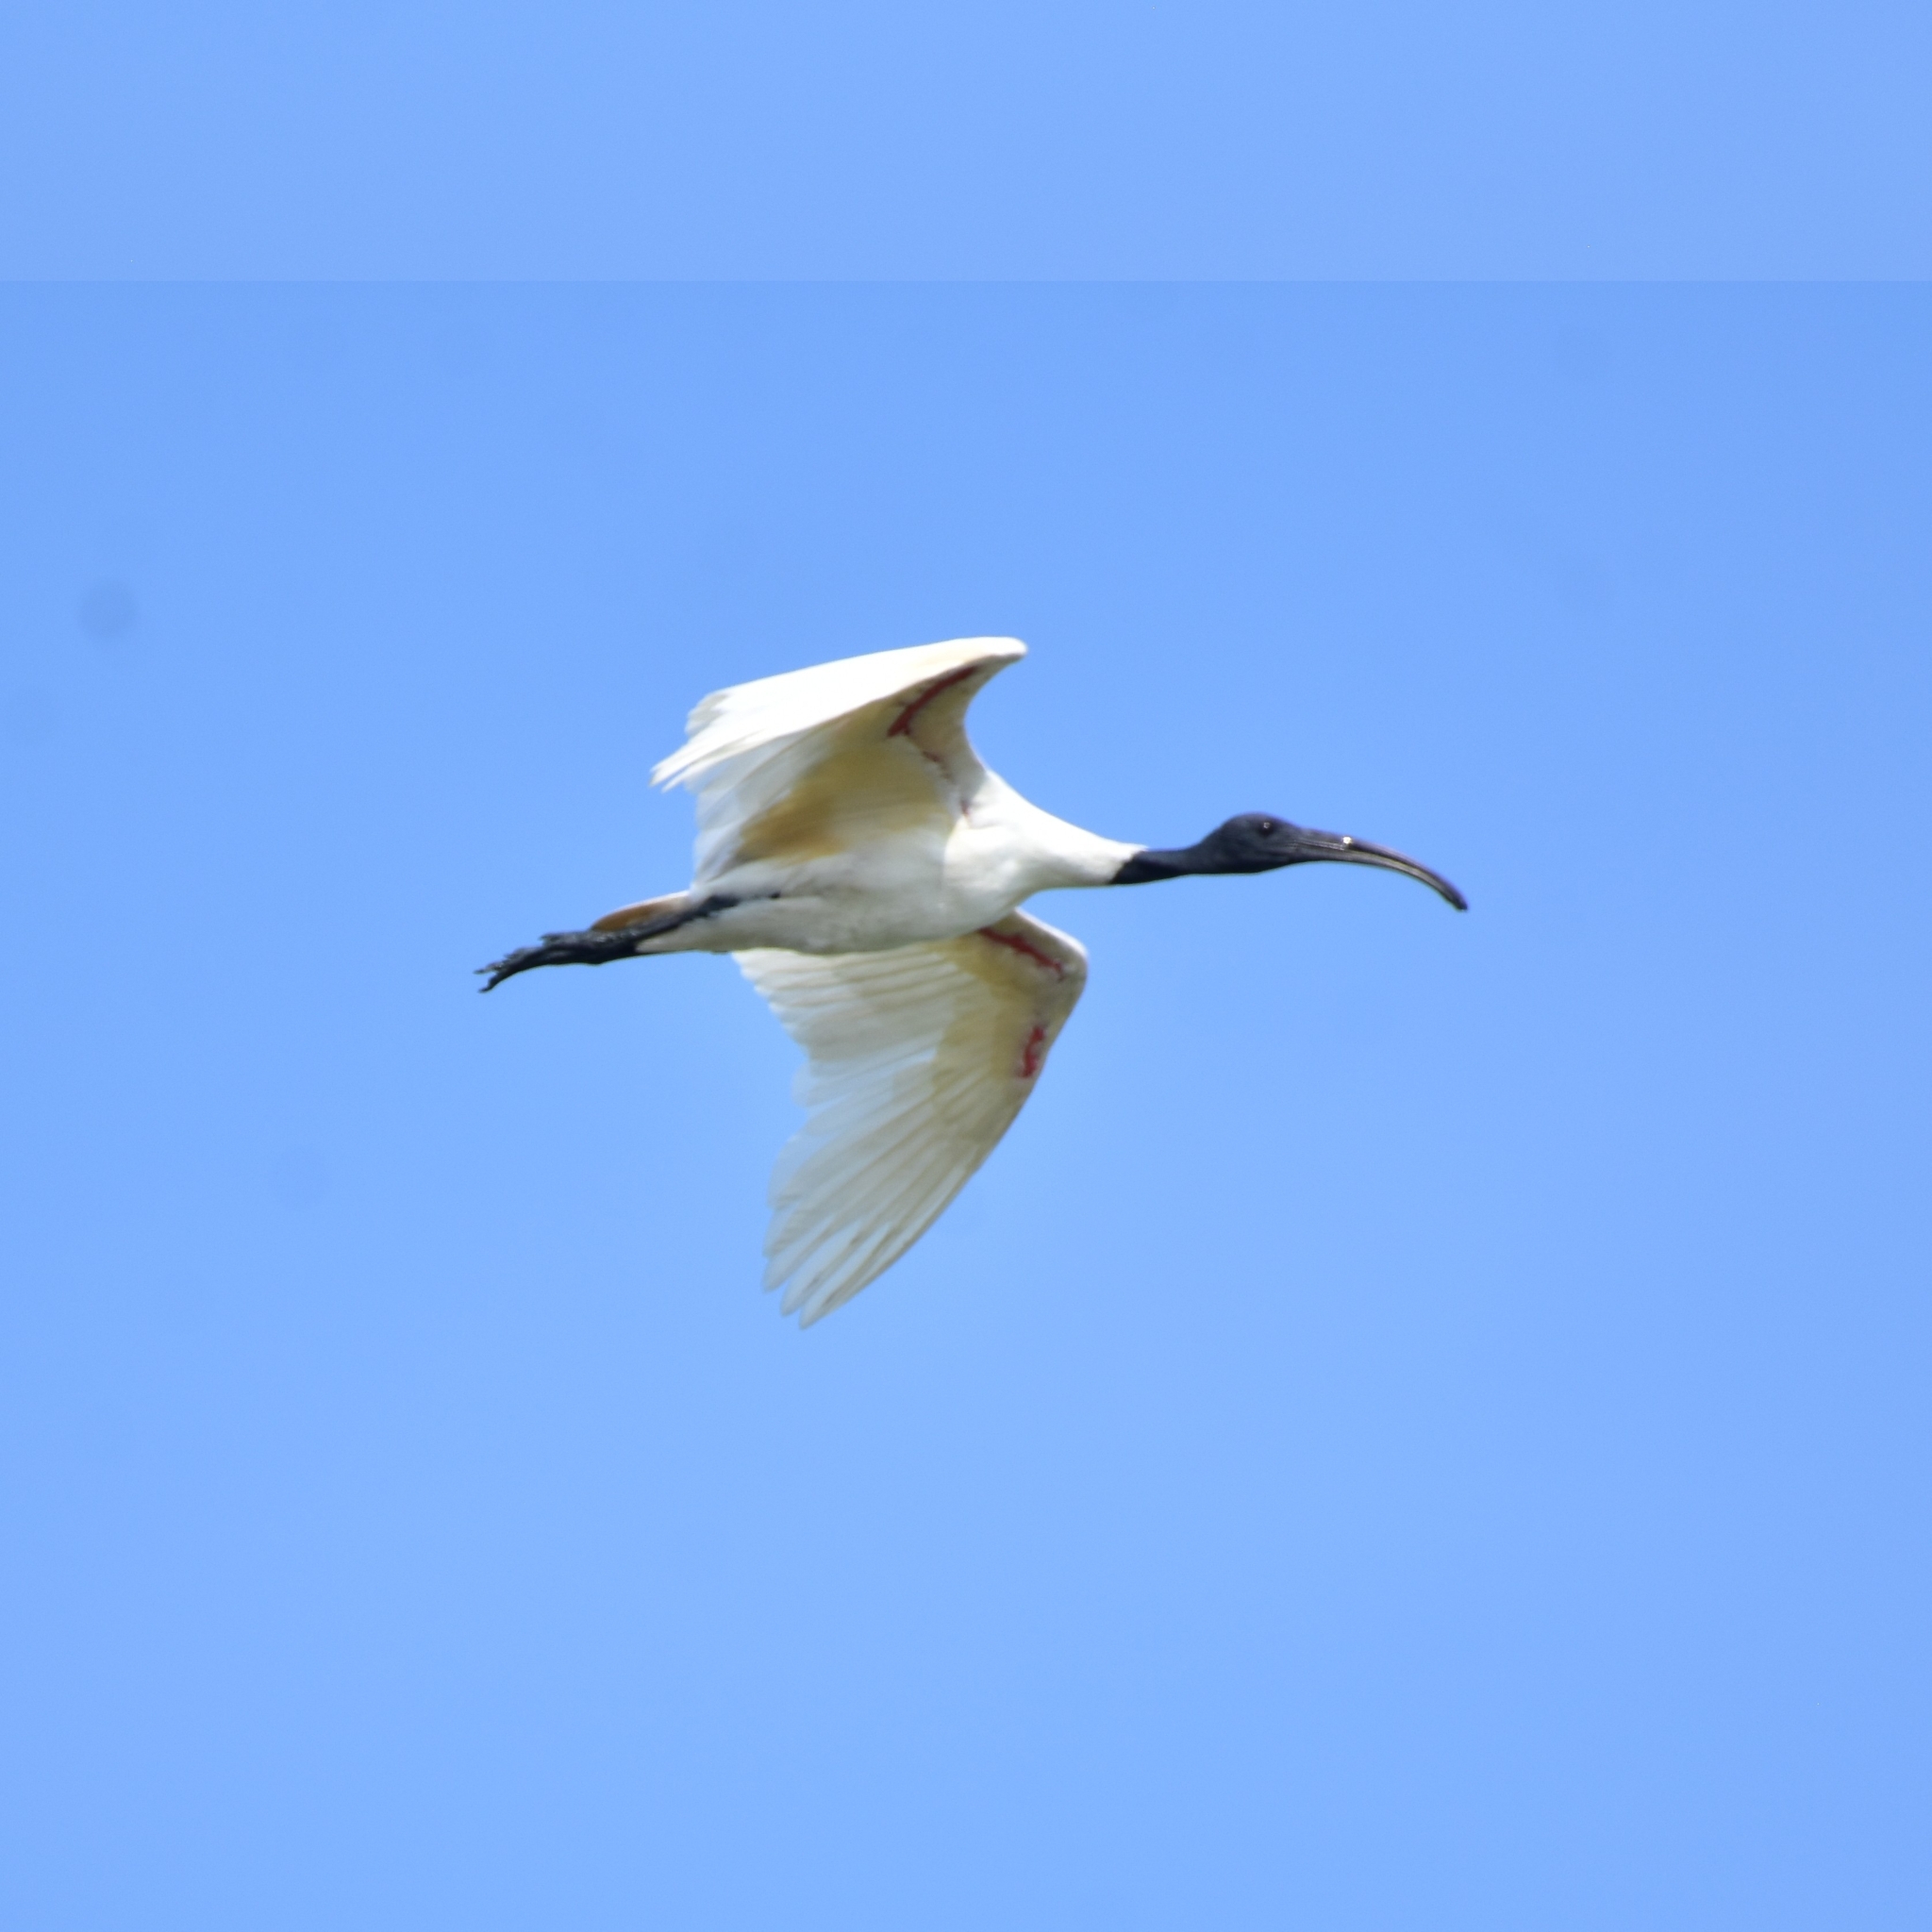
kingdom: Animalia
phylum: Chordata
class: Aves
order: Pelecaniformes
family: Threskiornithidae
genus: Threskiornis
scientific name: Threskiornis melanocephalus
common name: Black-headed ibis
